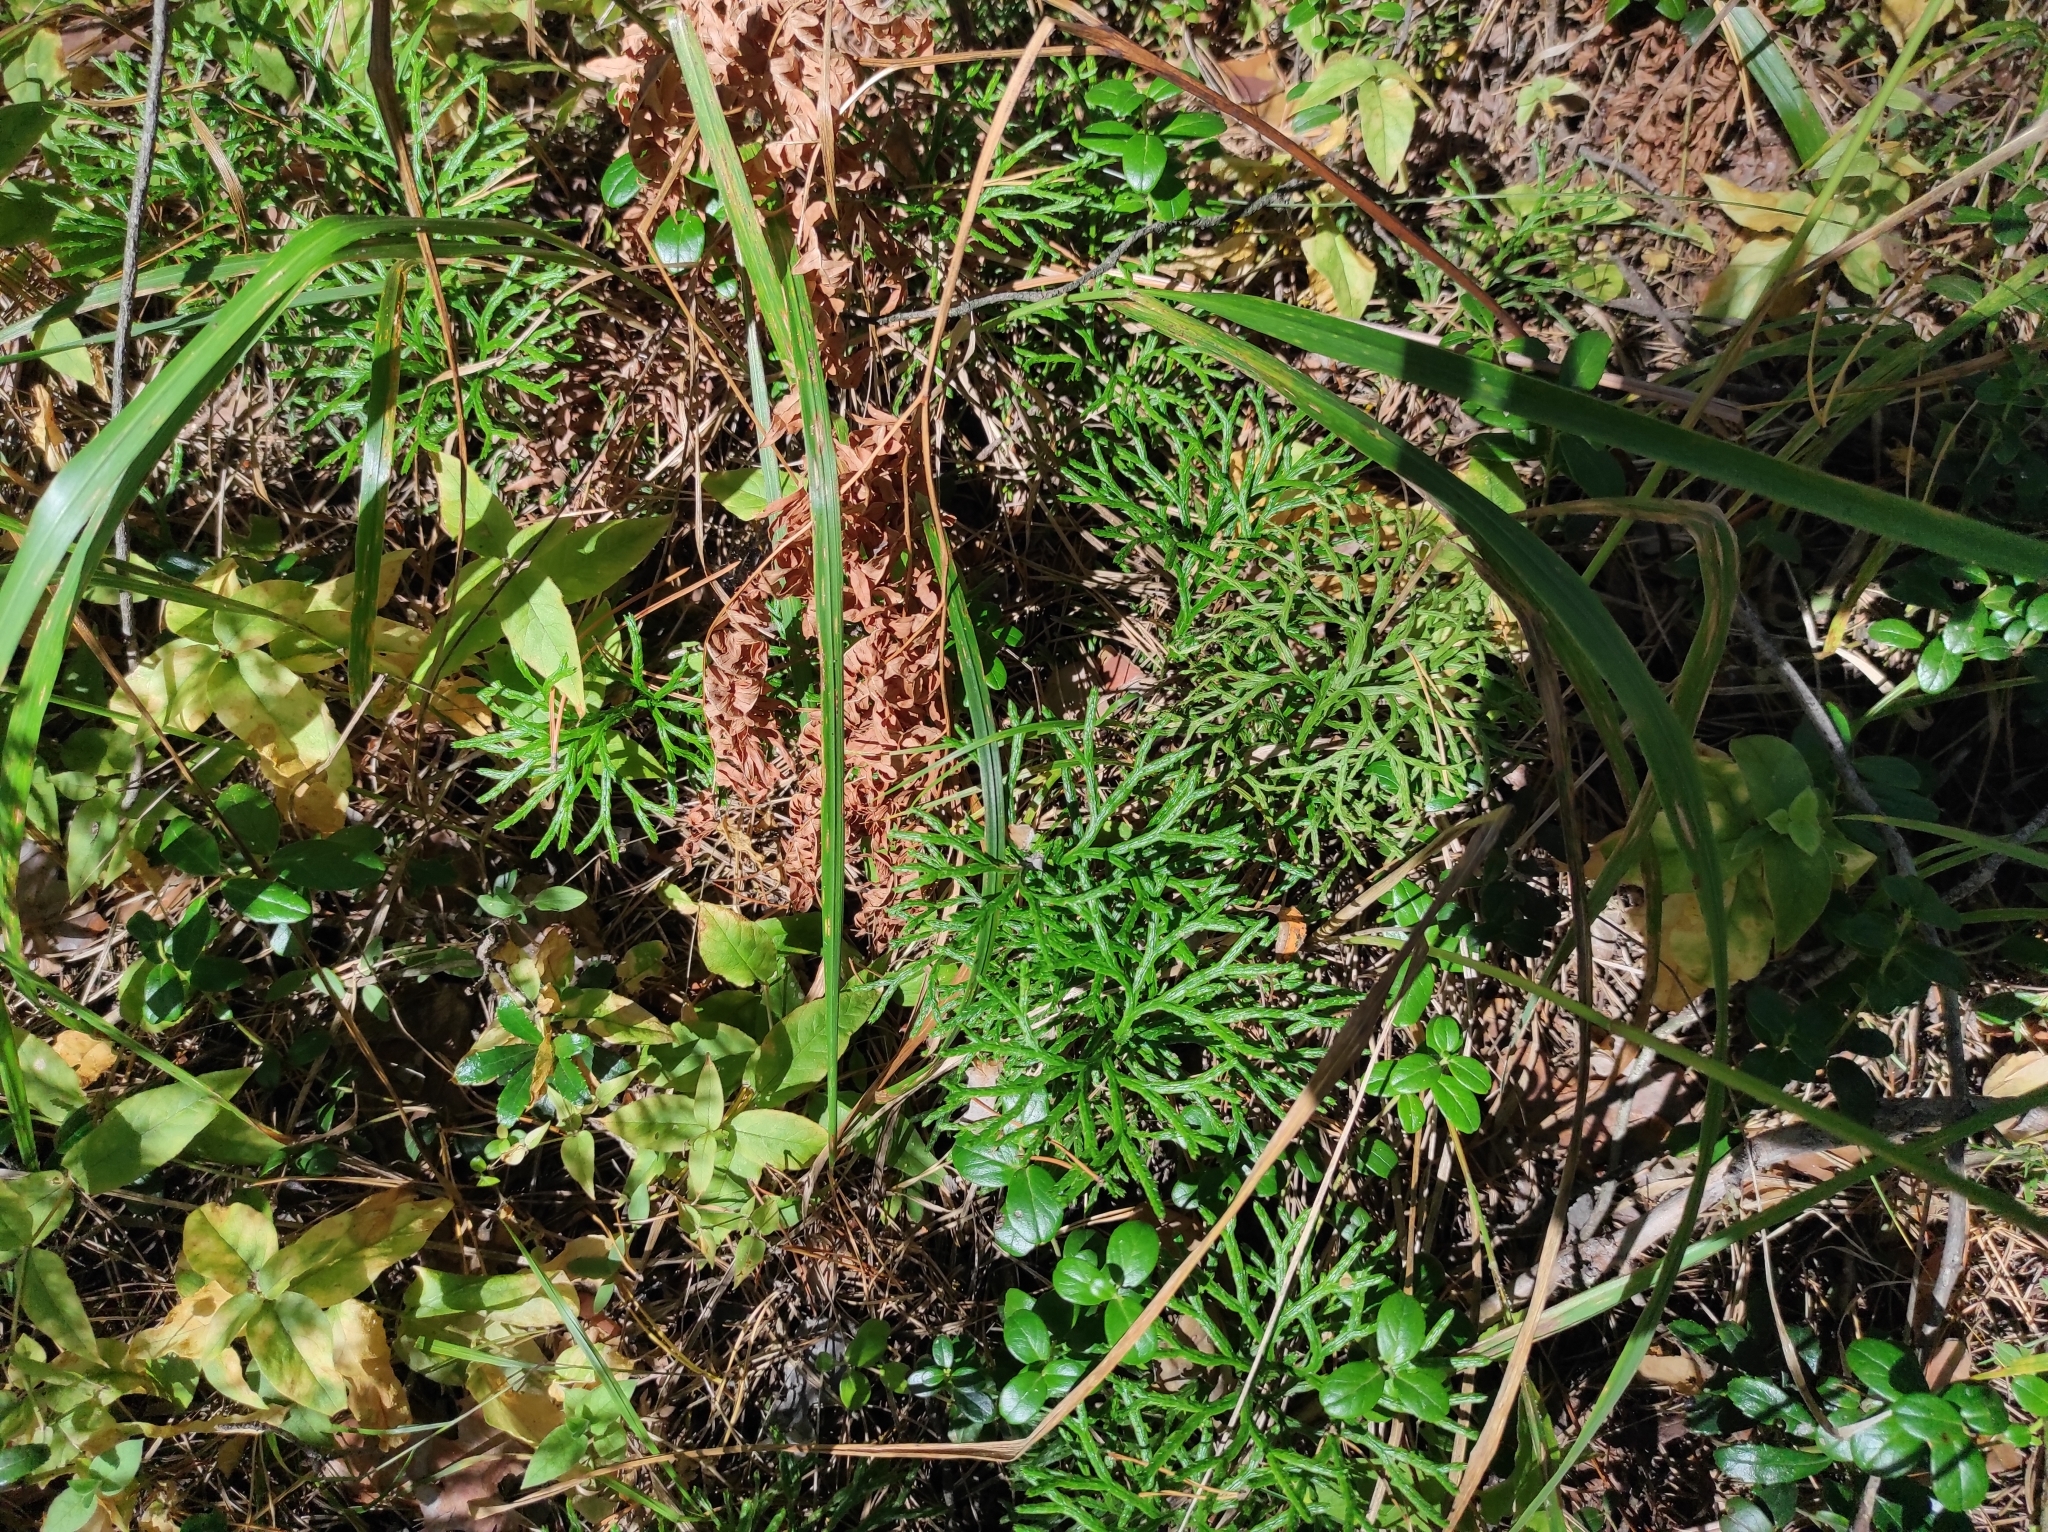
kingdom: Plantae
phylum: Tracheophyta
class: Lycopodiopsida
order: Lycopodiales
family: Lycopodiaceae
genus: Diphasiastrum
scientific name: Diphasiastrum complanatum
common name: Northern running-pine
